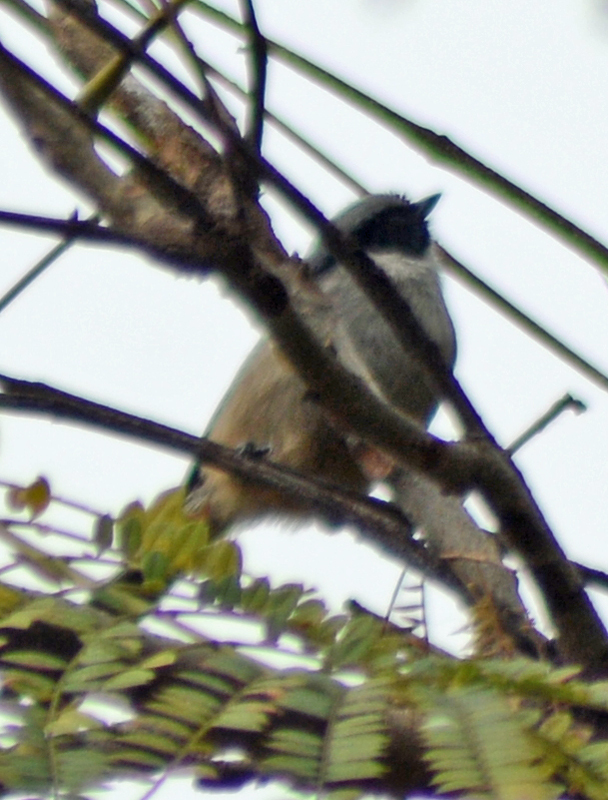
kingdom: Animalia
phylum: Chordata
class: Aves
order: Passeriformes
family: Aegithalidae
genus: Psaltriparus
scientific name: Psaltriparus minimus
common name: American bushtit
